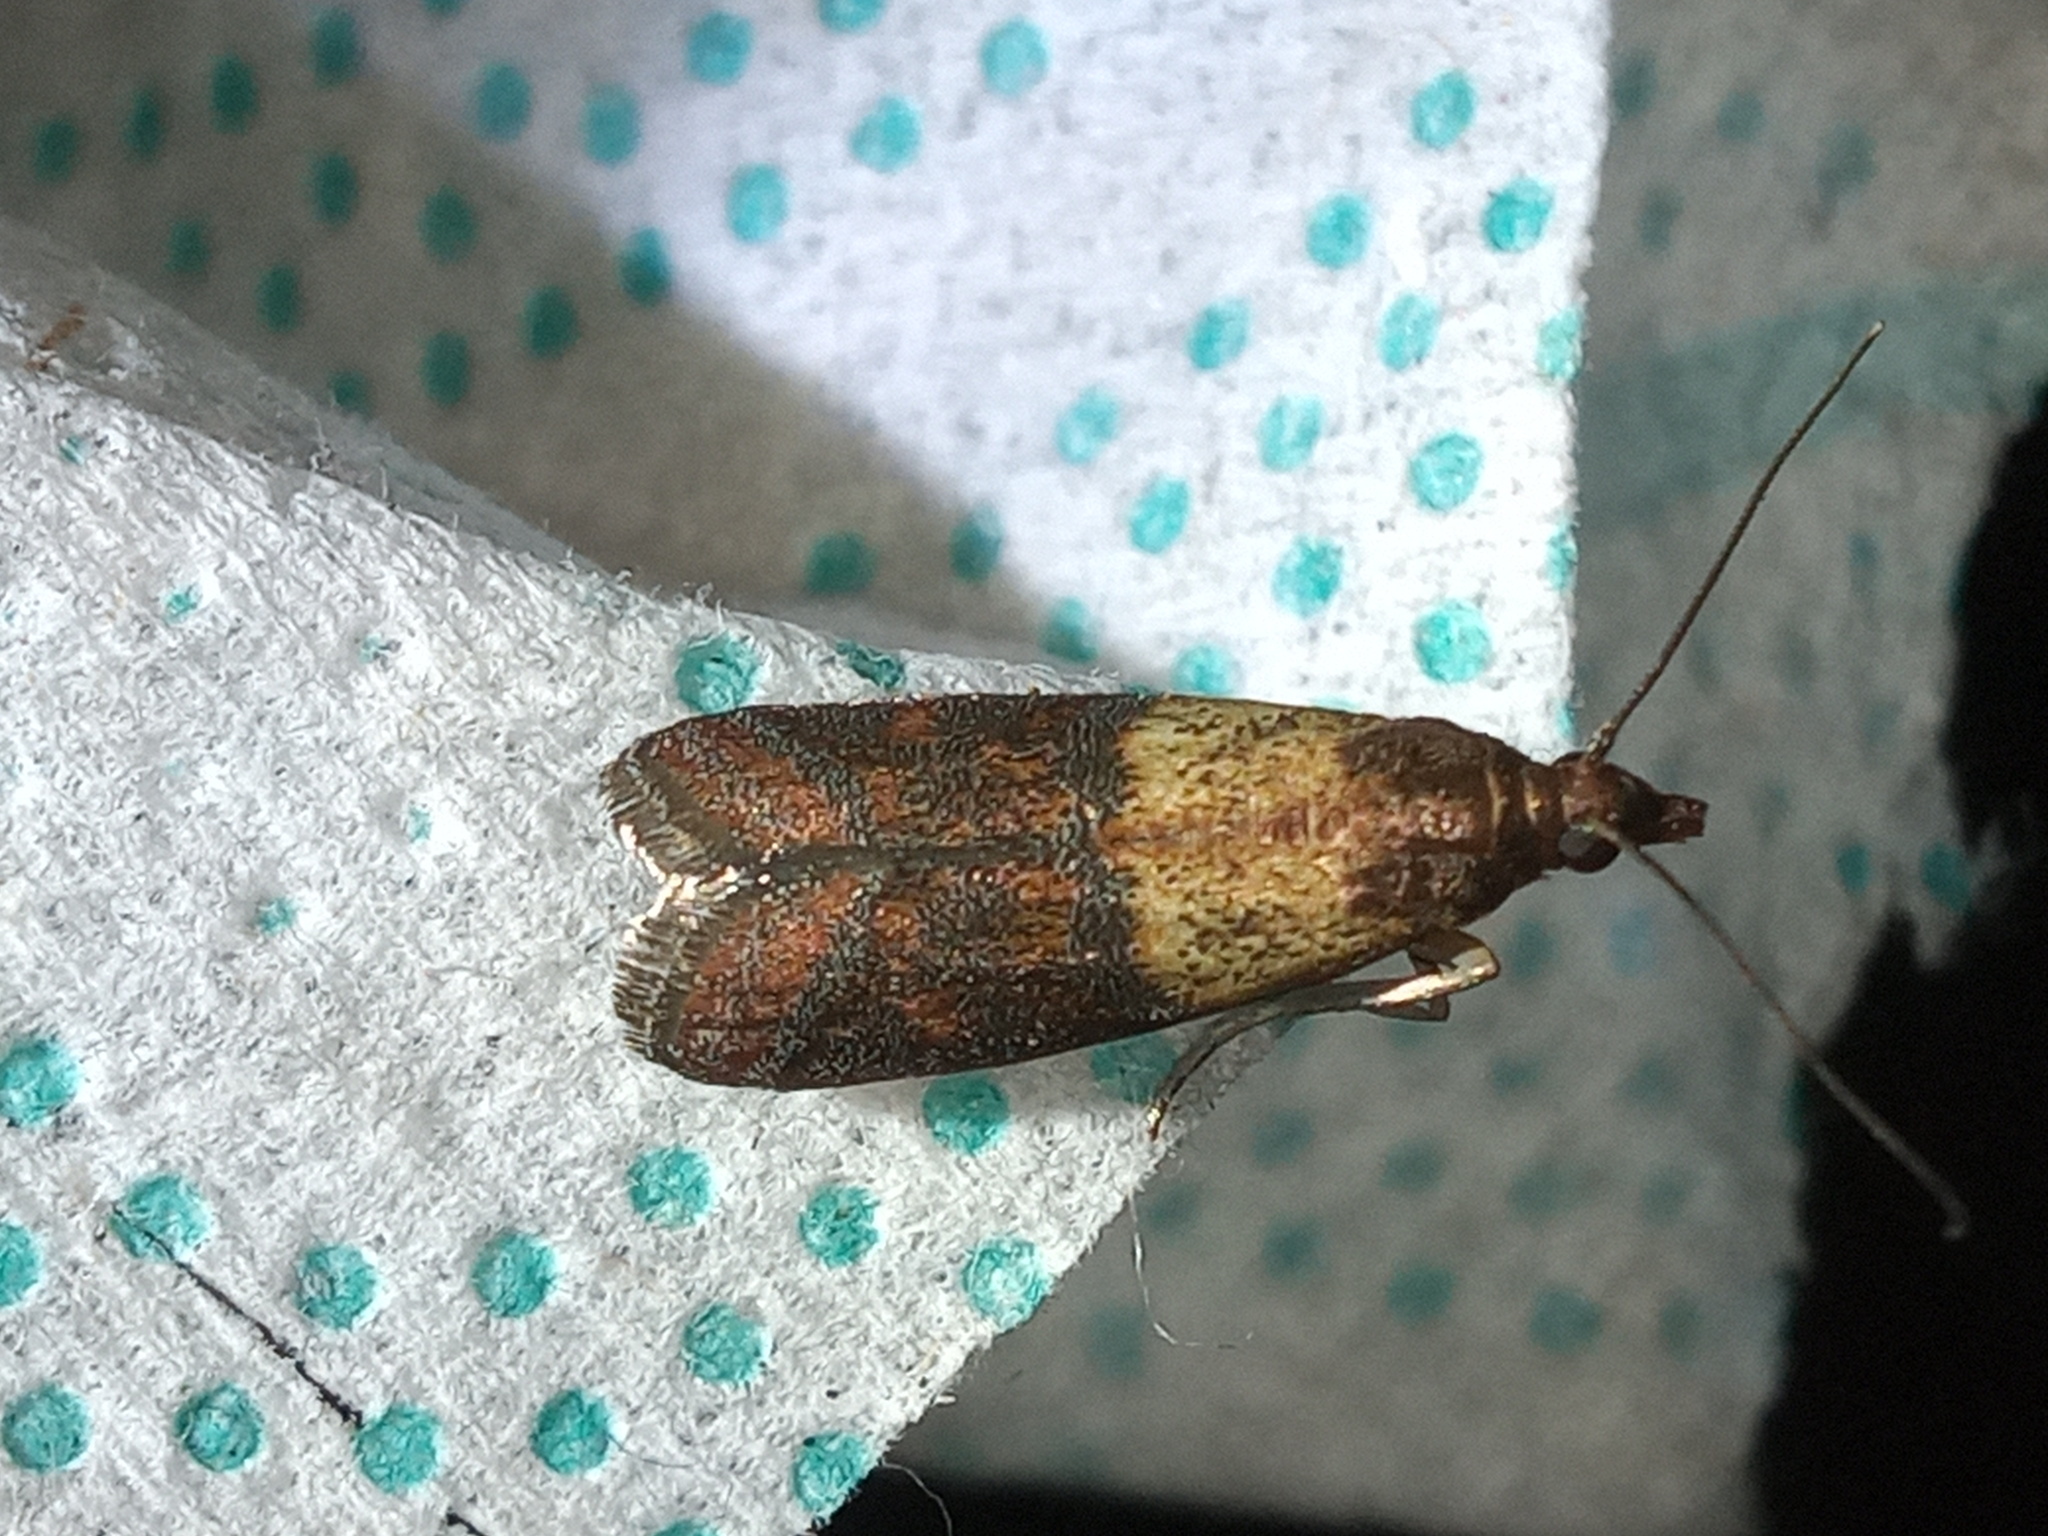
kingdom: Animalia
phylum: Arthropoda
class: Insecta
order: Lepidoptera
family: Pyralidae
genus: Plodia
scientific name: Plodia interpunctella
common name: Indian meal moth
